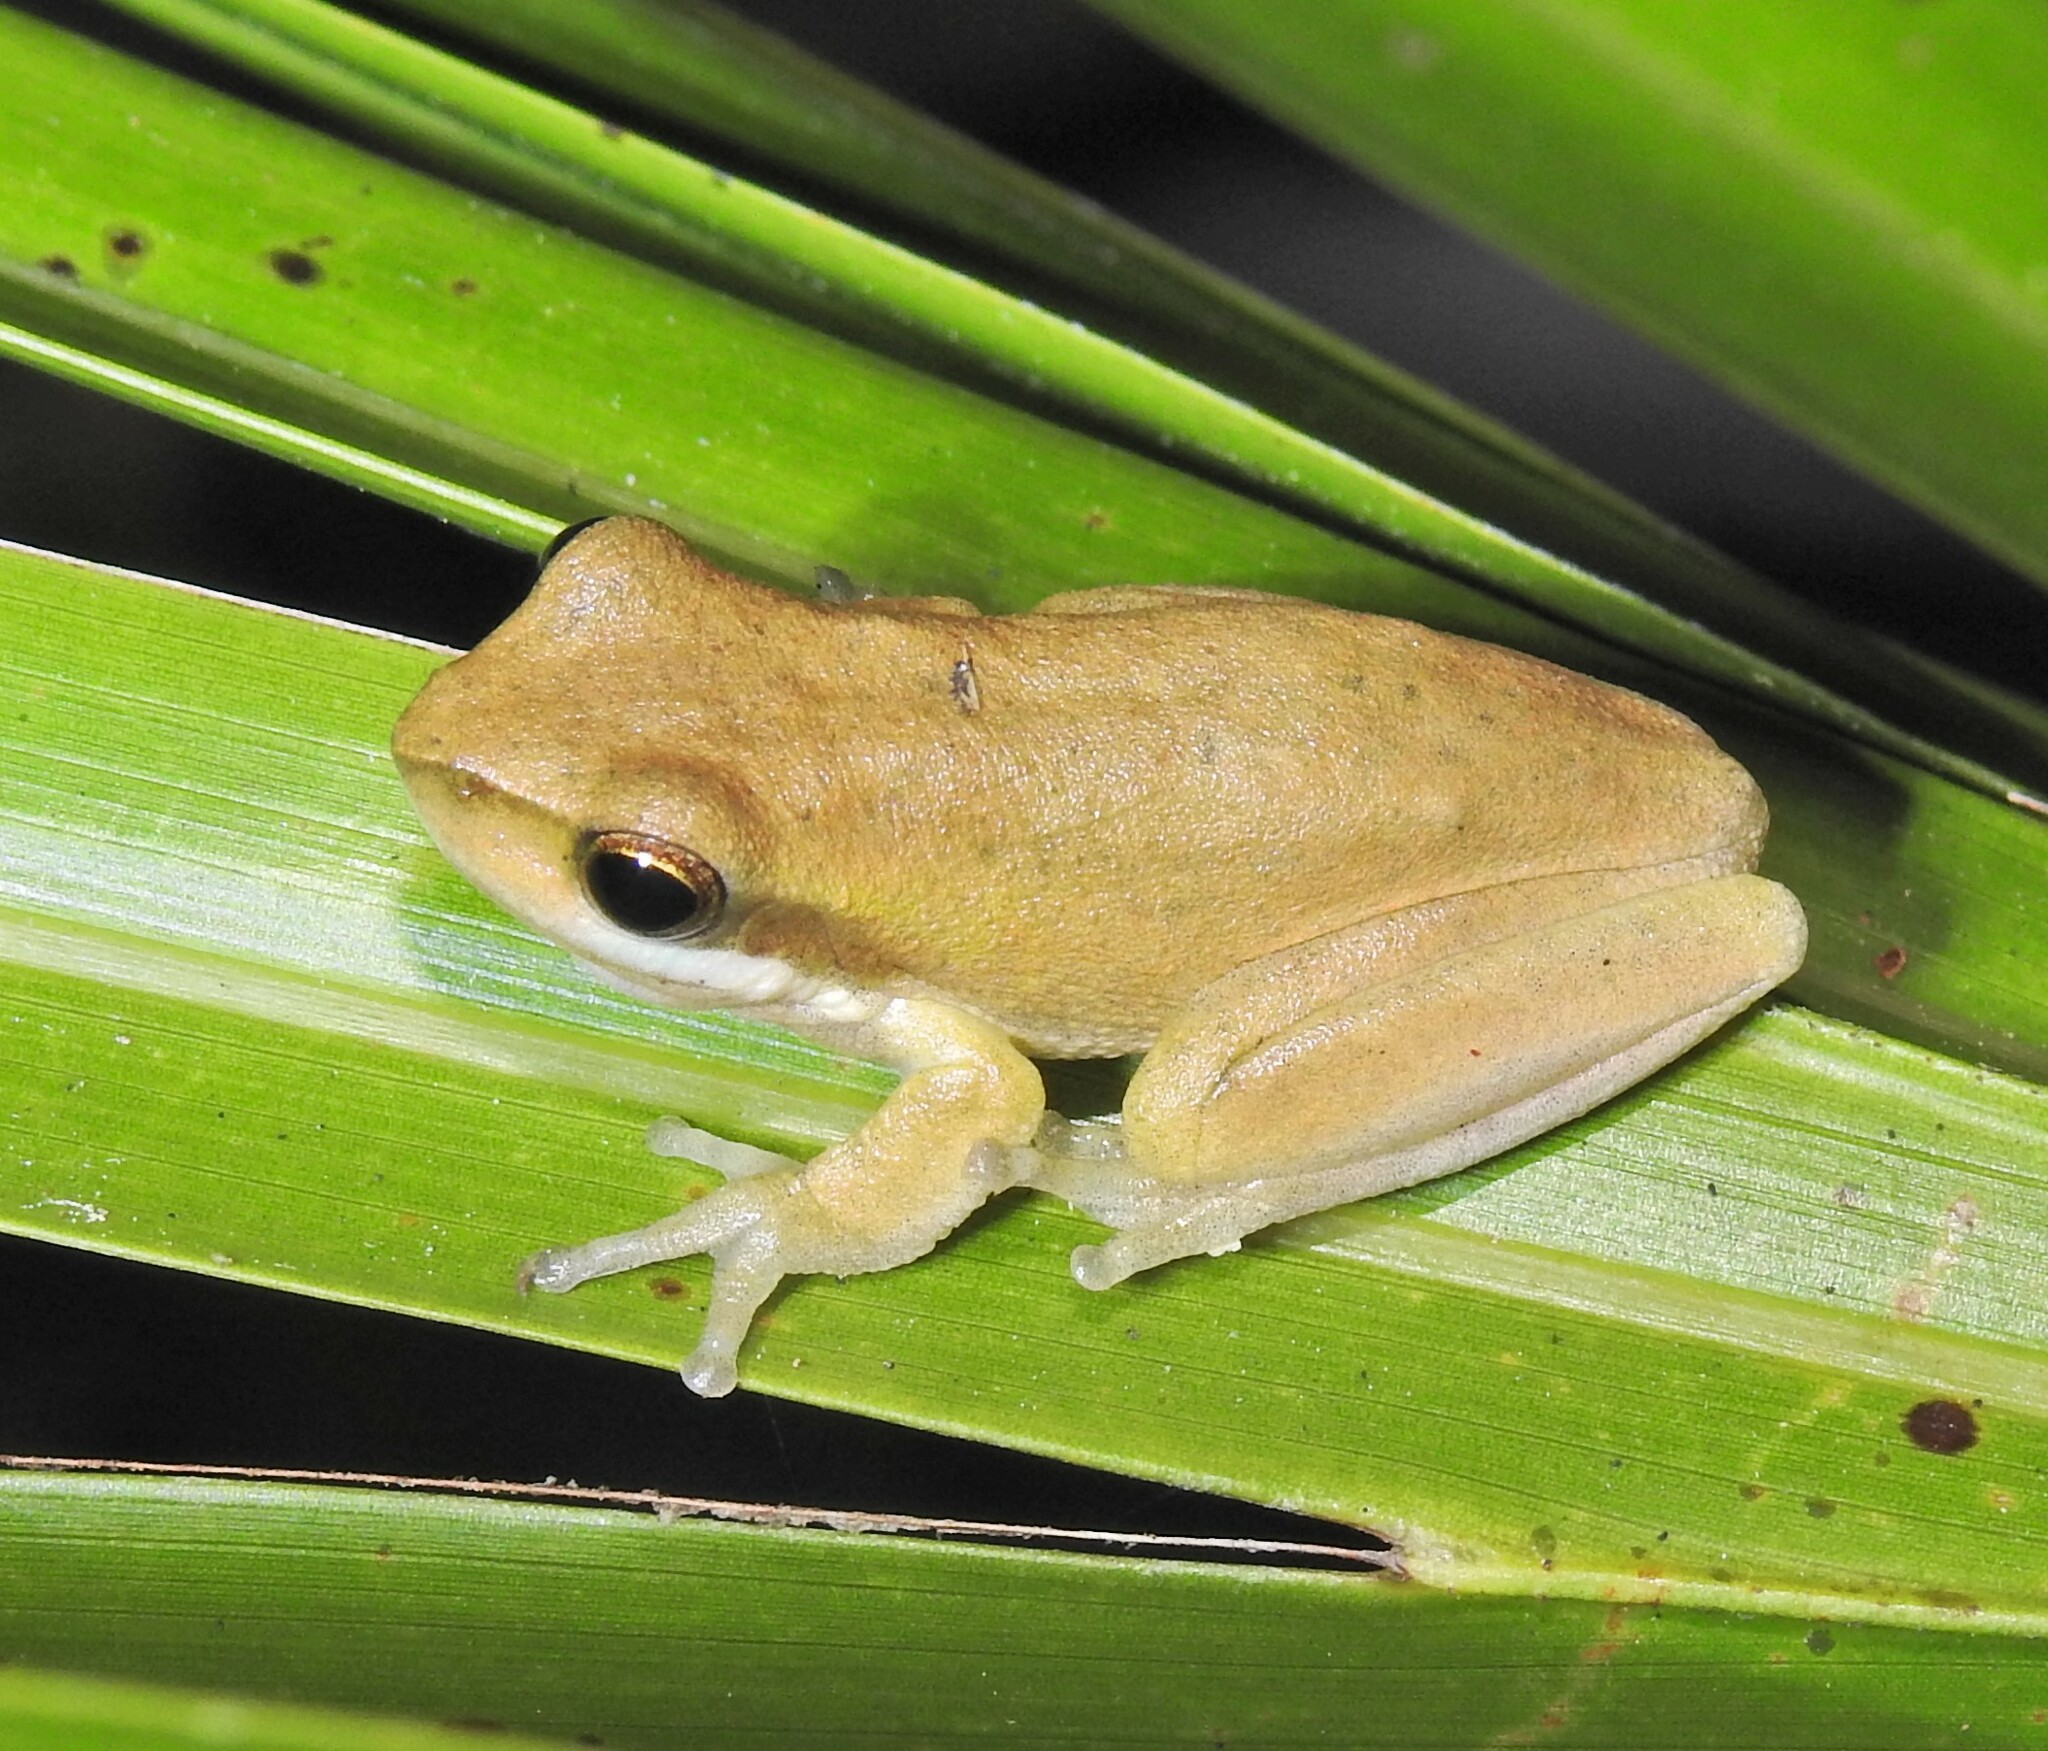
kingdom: Animalia
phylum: Chordata
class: Amphibia
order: Anura
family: Pelodryadidae
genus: Litoria
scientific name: Litoria fallax
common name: Eastern dwarf treefrog
